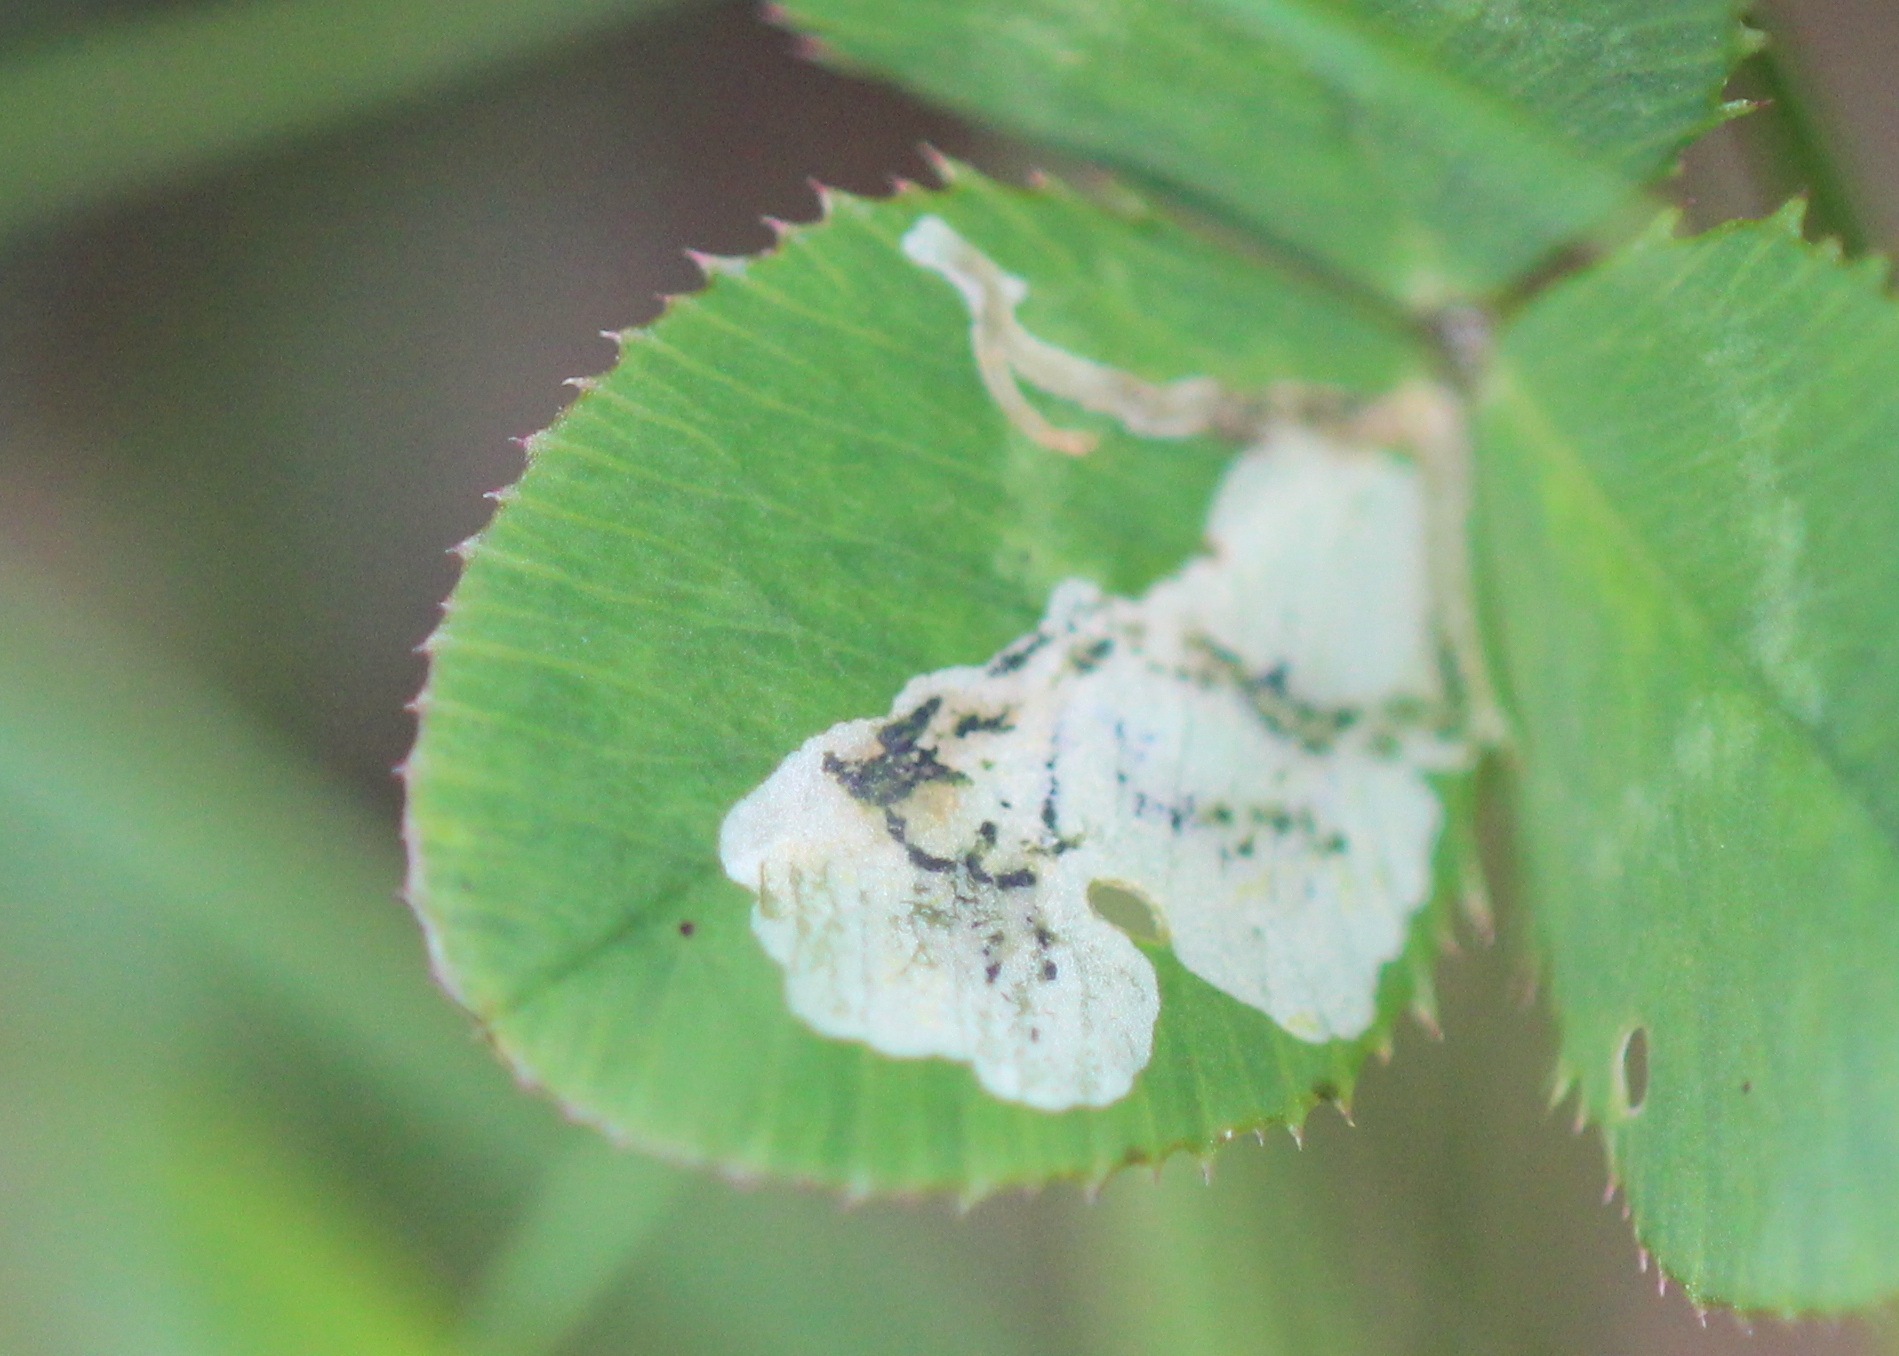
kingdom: Animalia
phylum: Arthropoda
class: Insecta
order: Diptera
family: Agromyzidae
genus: Liriomyza
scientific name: Liriomyza fricki
